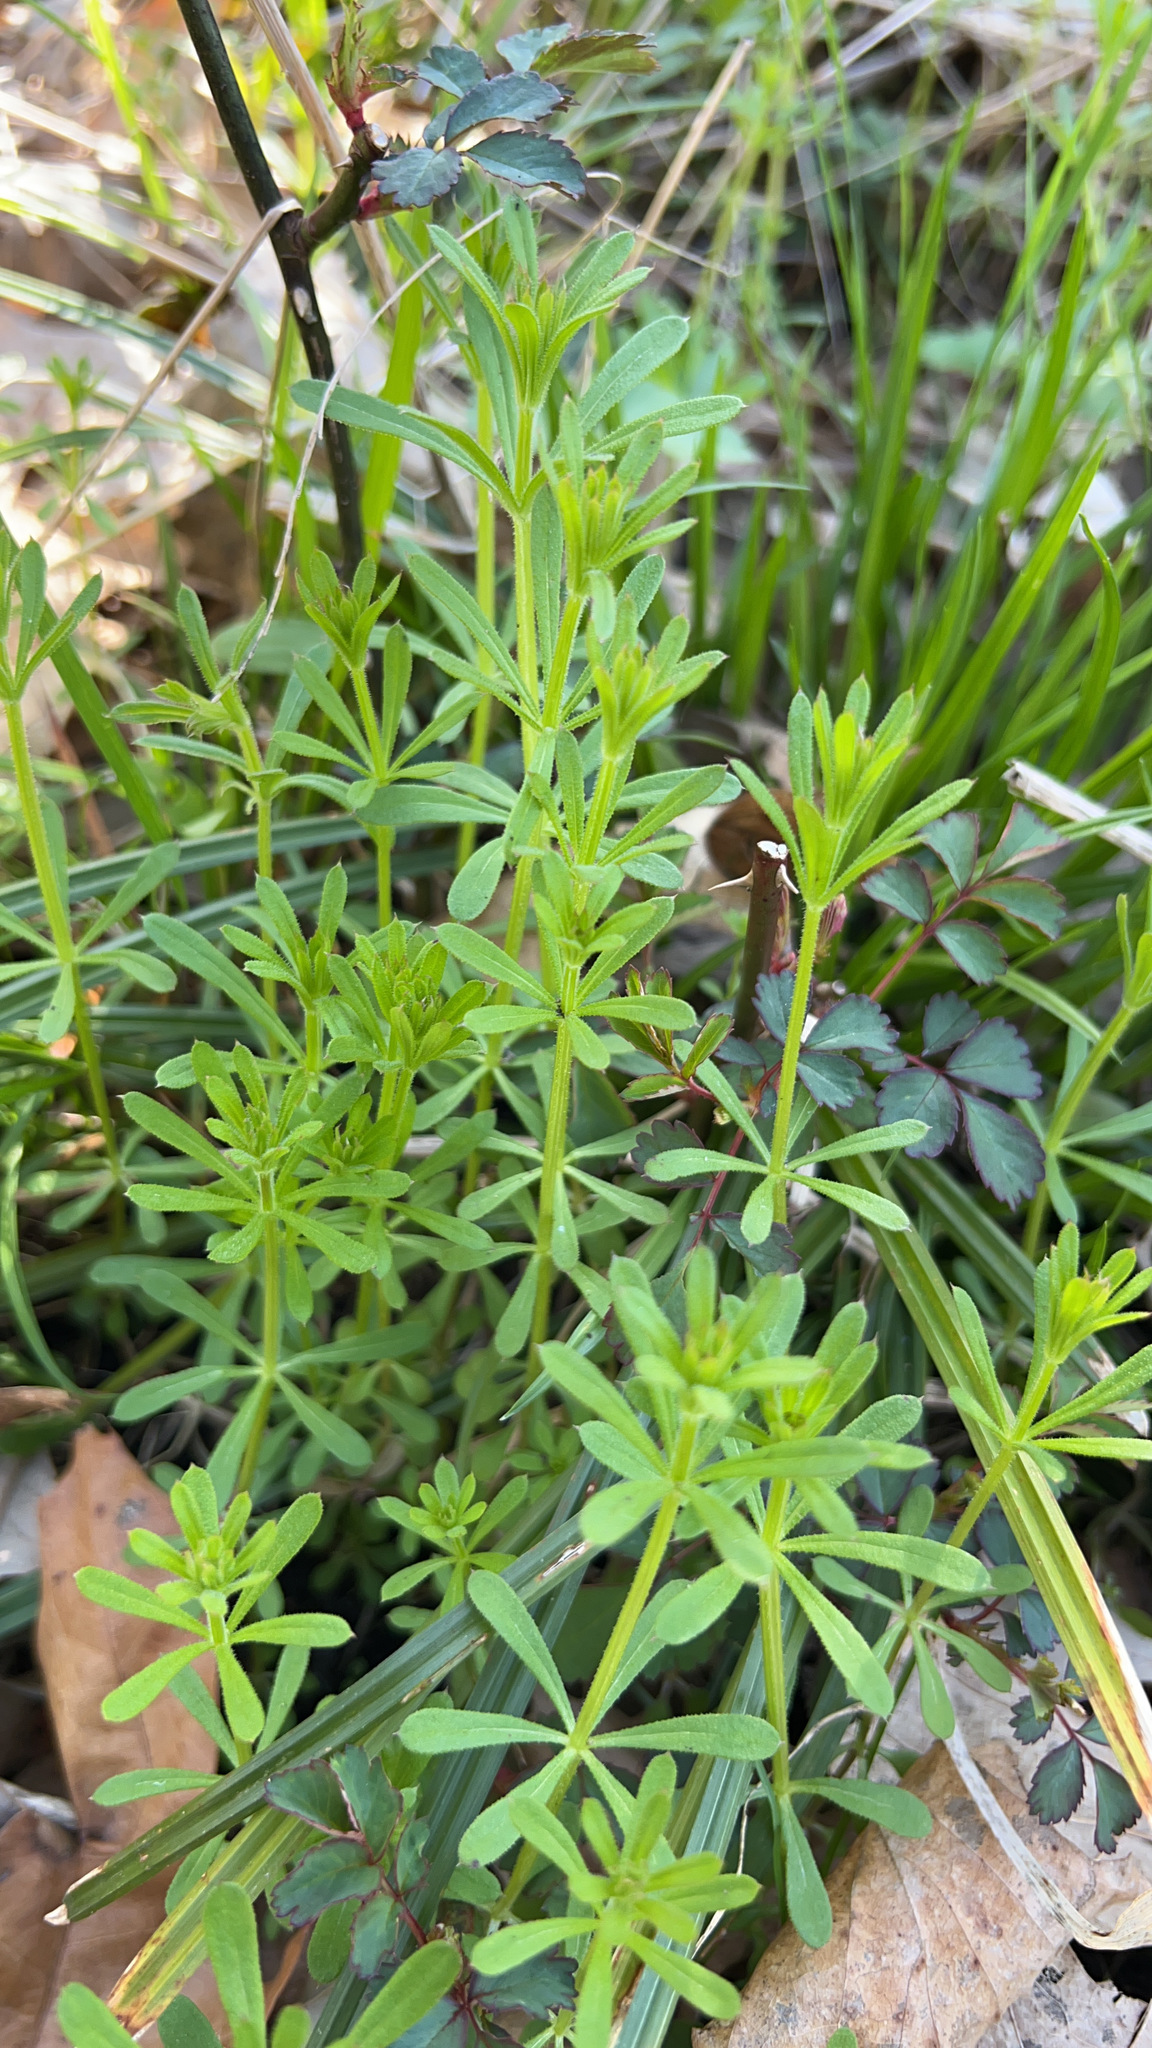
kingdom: Plantae
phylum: Tracheophyta
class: Magnoliopsida
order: Gentianales
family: Rubiaceae
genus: Galium
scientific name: Galium aparine
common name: Cleavers
